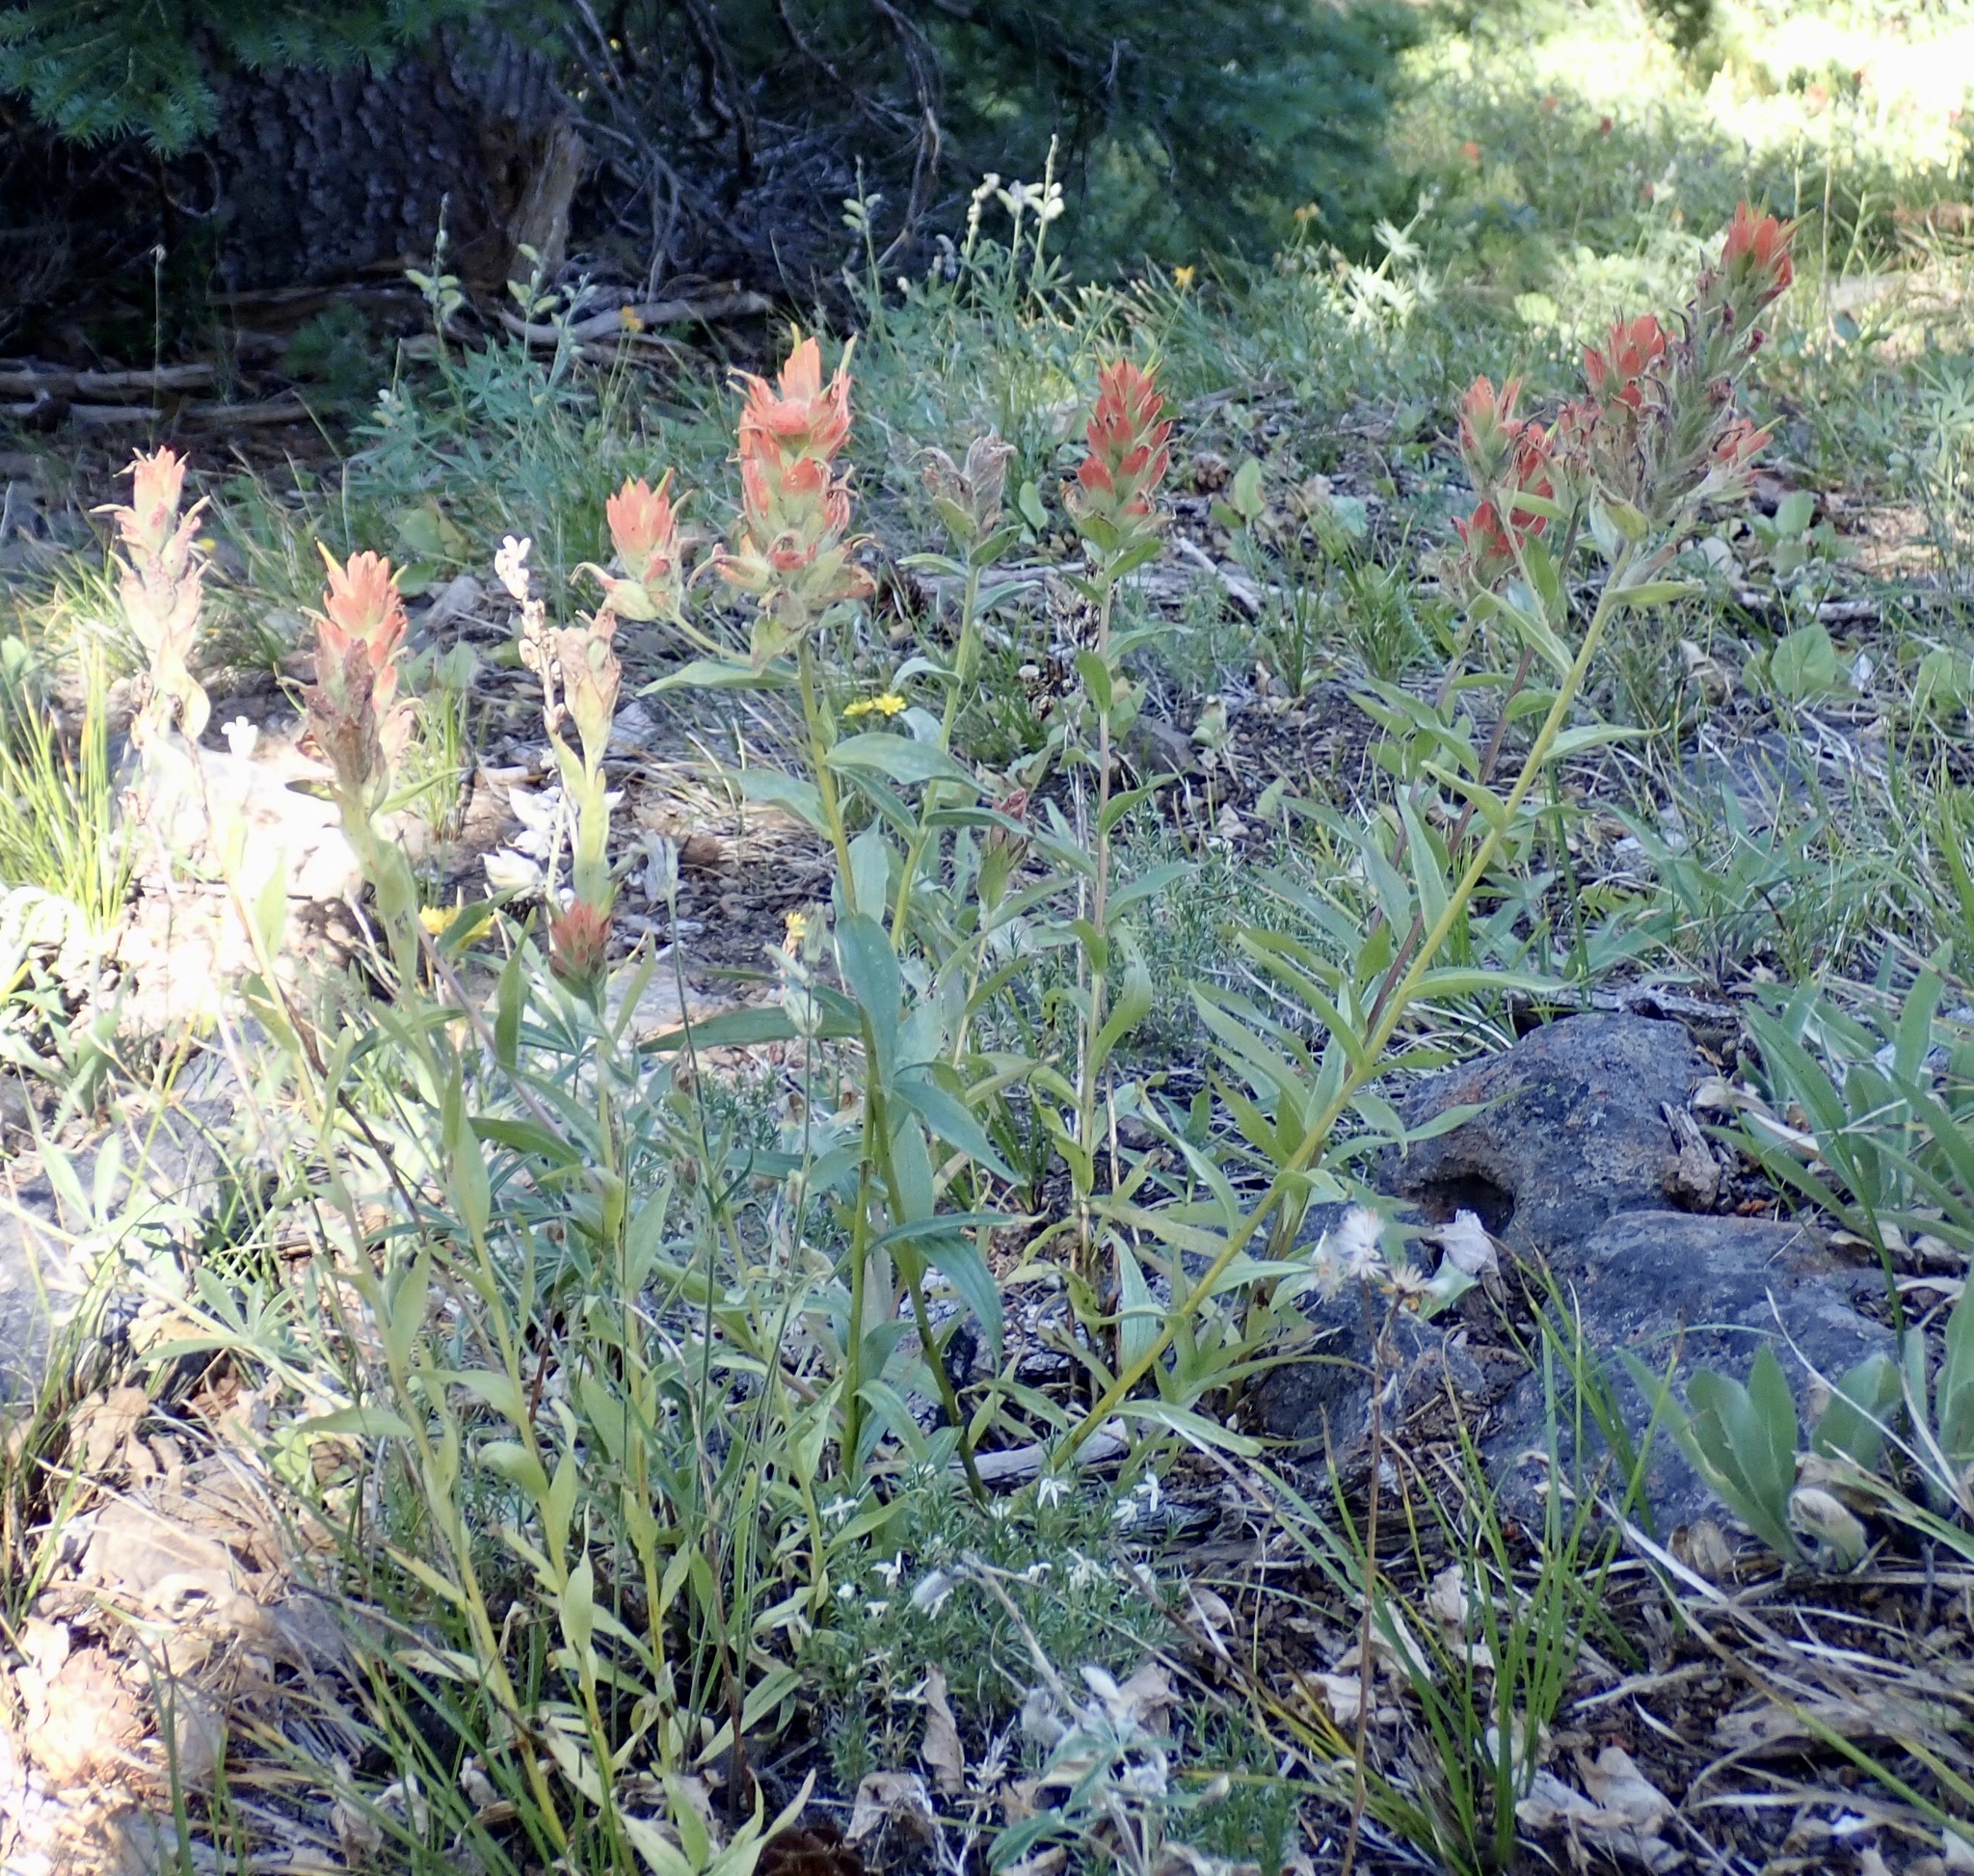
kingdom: Plantae
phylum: Tracheophyta
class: Magnoliopsida
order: Lamiales
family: Orobanchaceae
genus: Castilleja
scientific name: Castilleja miniata
